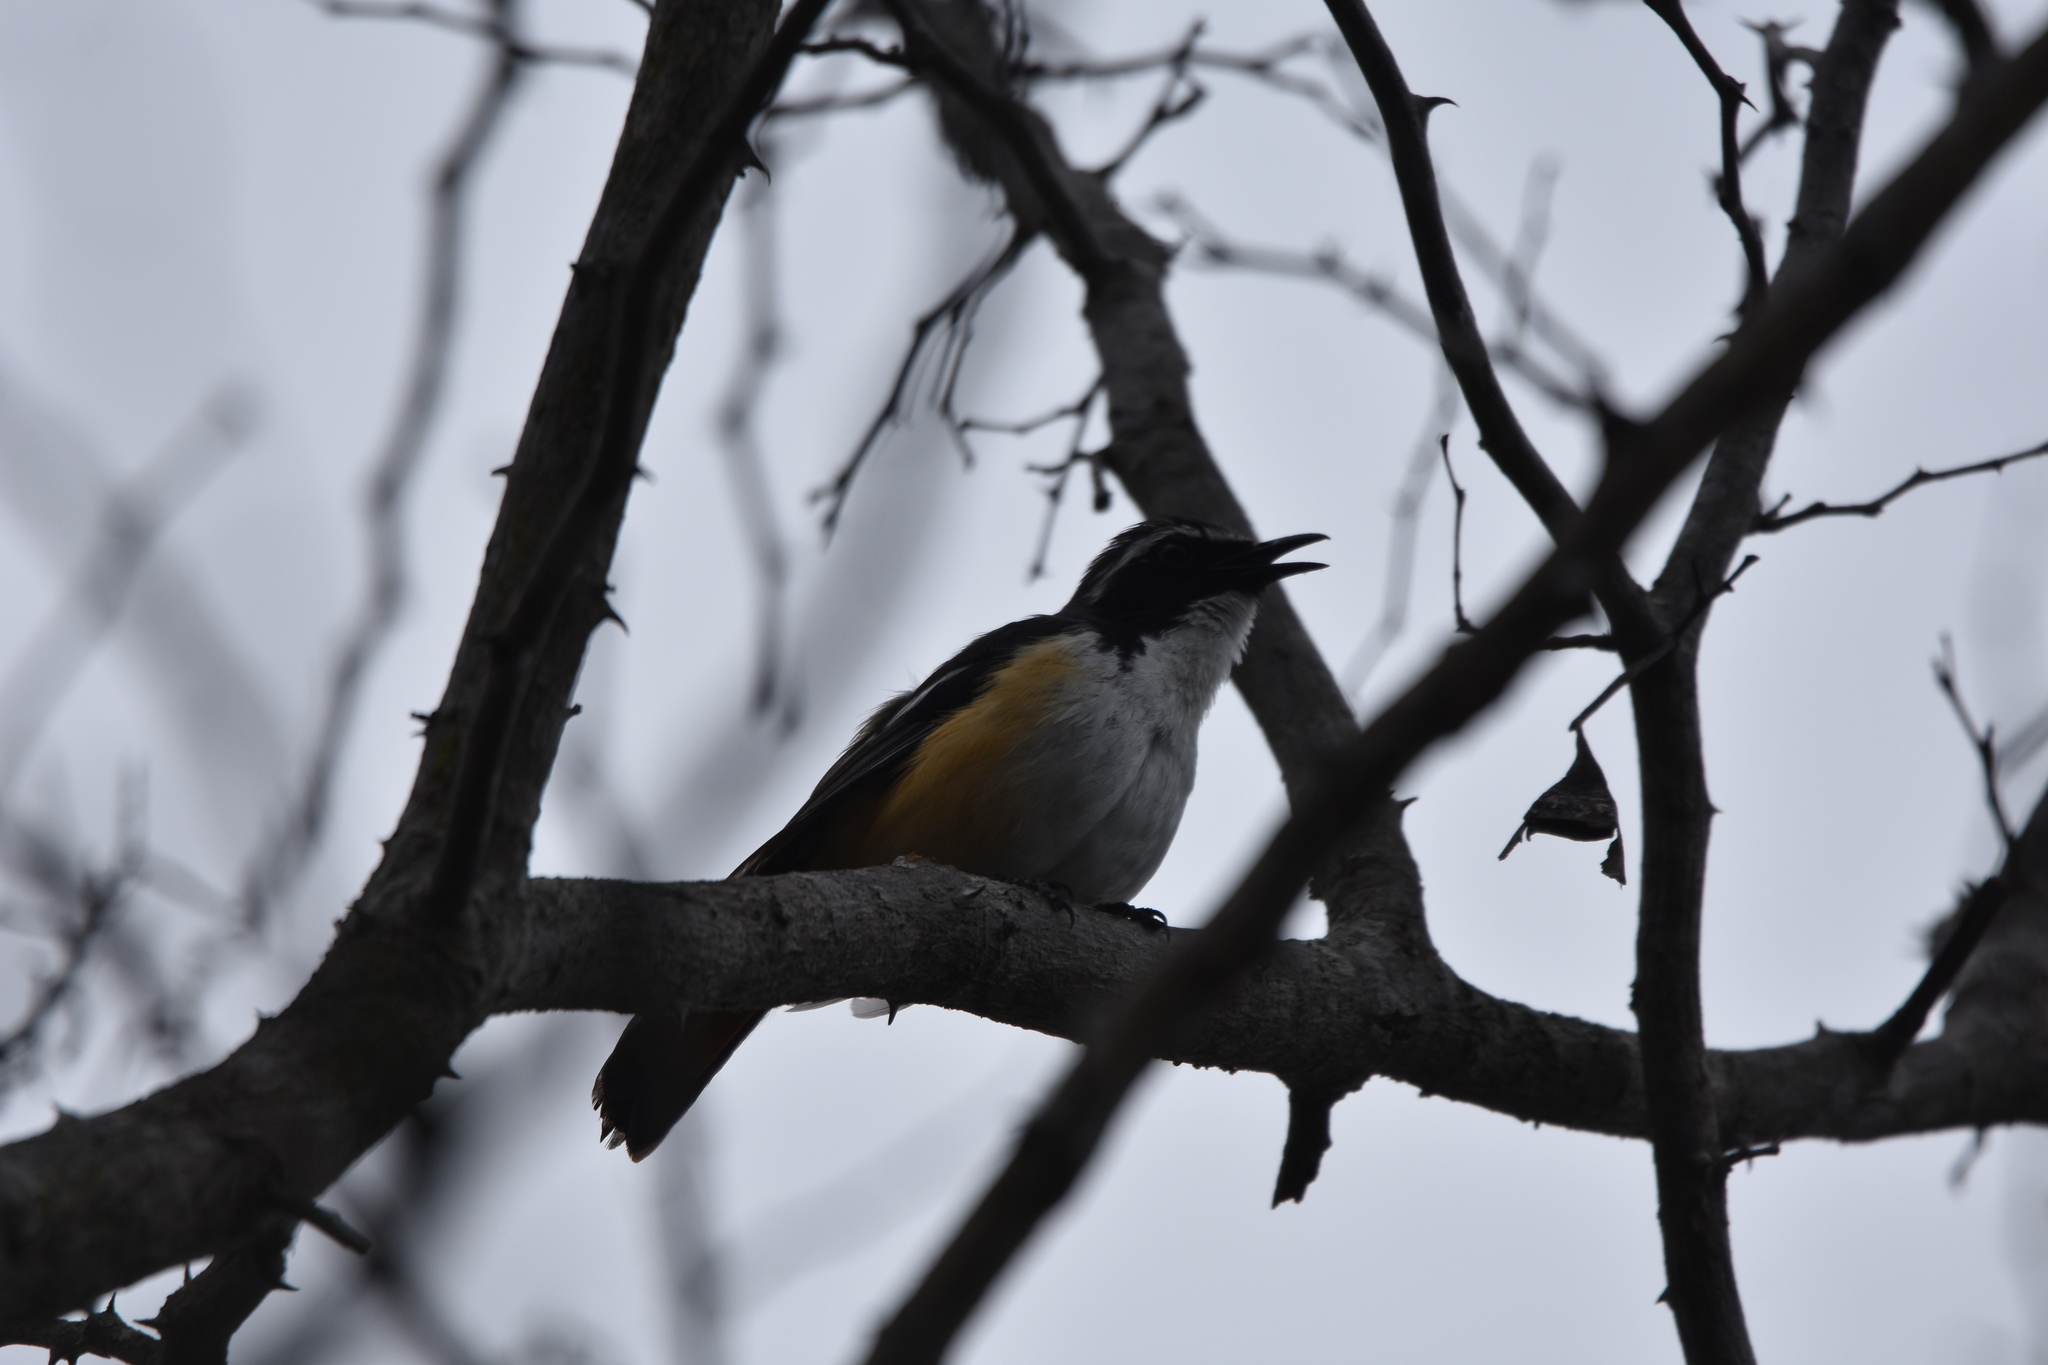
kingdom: Animalia
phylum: Chordata
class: Aves
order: Passeriformes
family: Muscicapidae
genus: Cossypha
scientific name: Cossypha humeralis
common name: White-throated robin-chat
